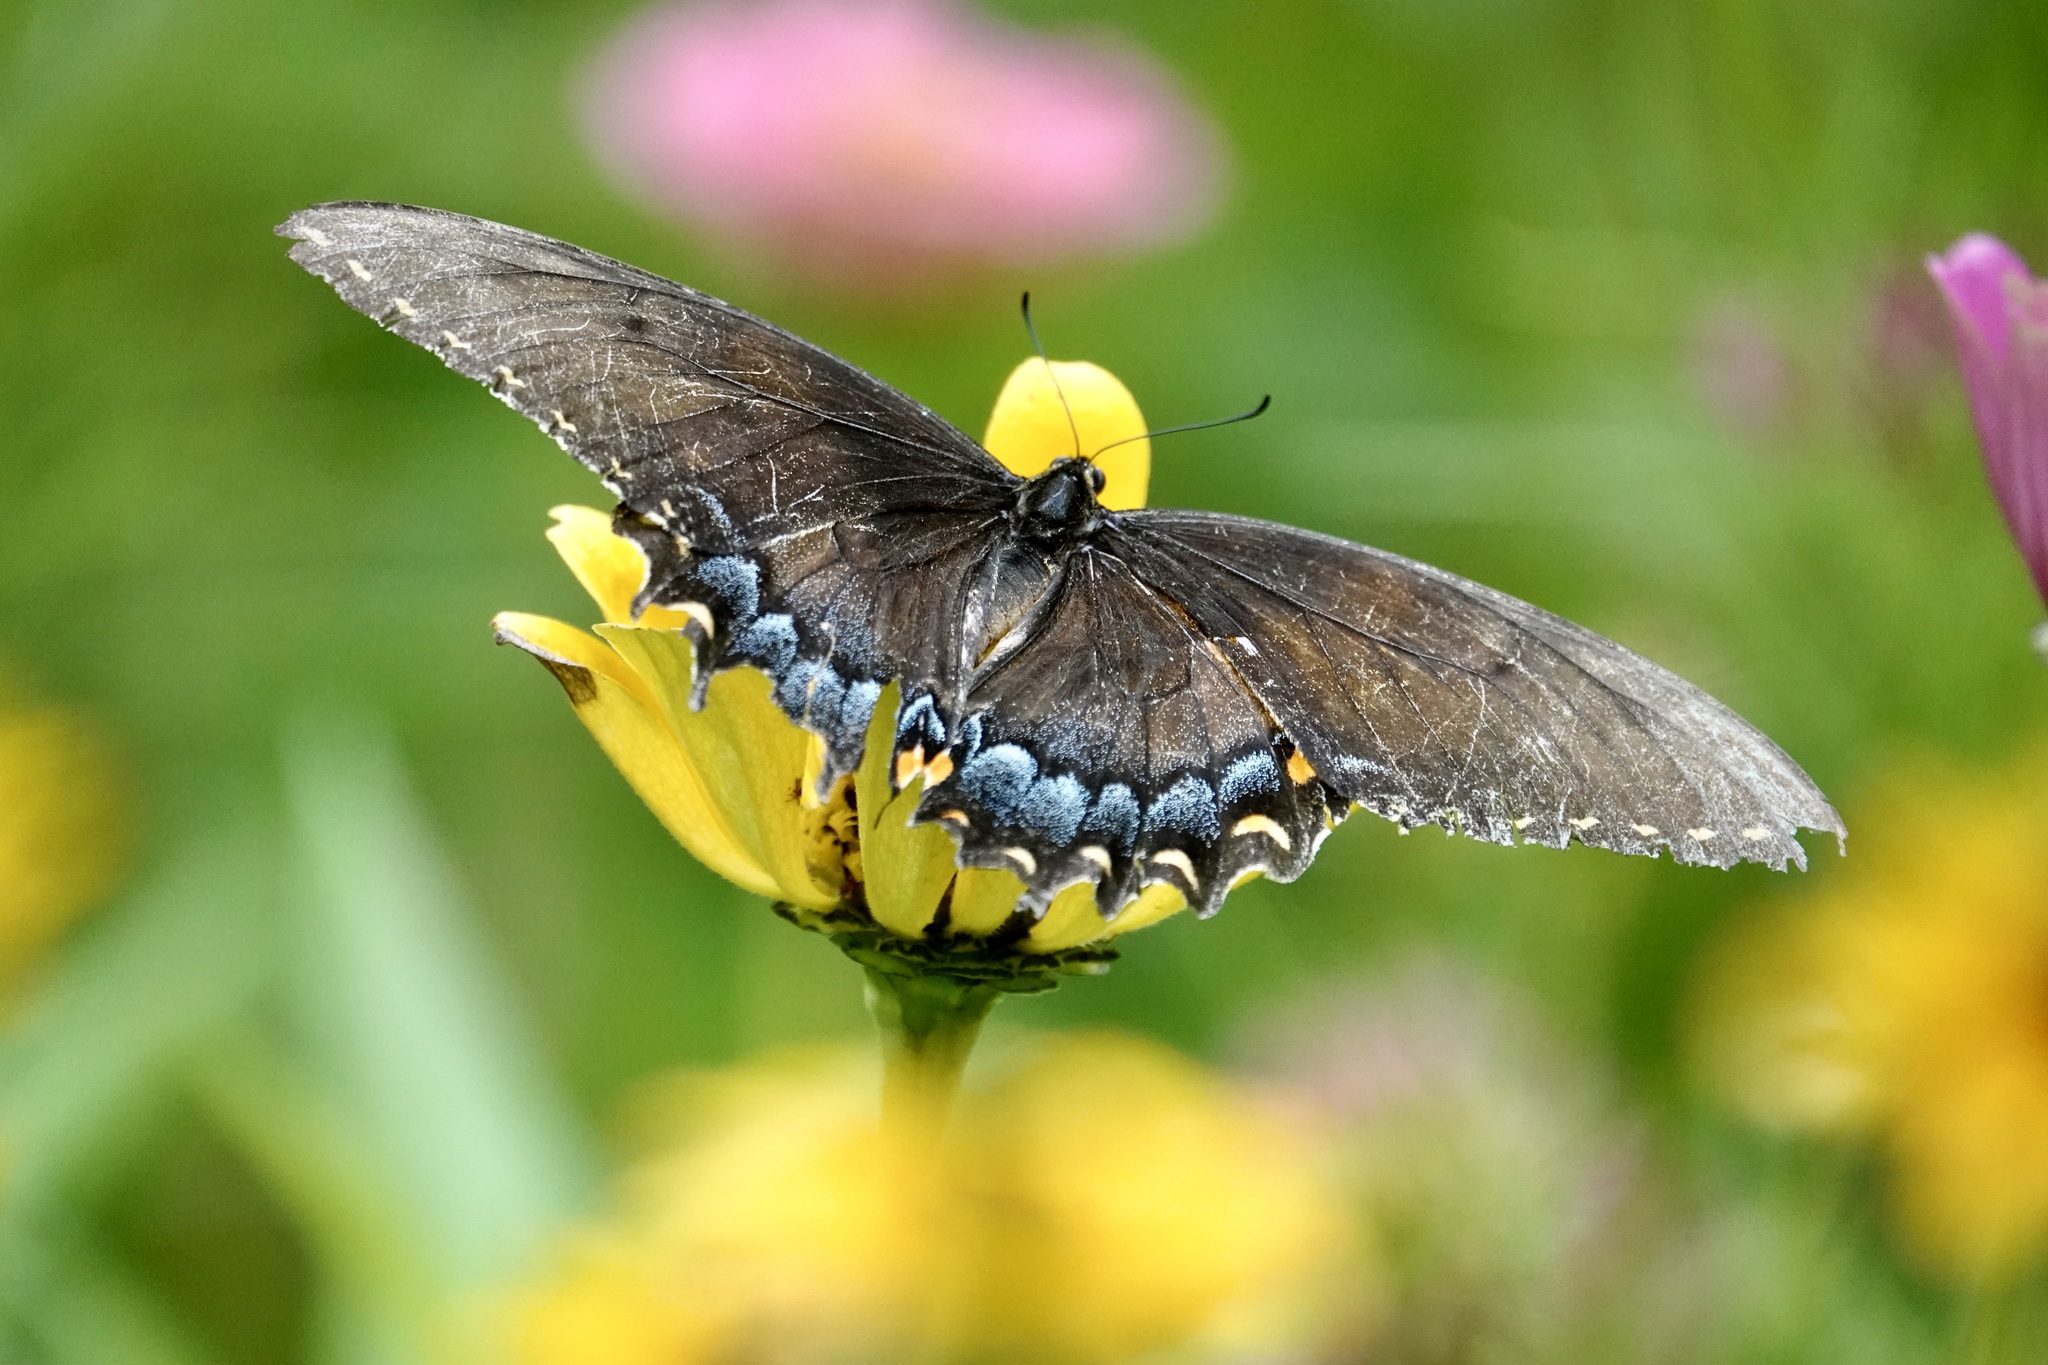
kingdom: Animalia
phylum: Arthropoda
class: Insecta
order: Lepidoptera
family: Papilionidae
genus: Papilio
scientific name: Papilio glaucus
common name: Tiger swallowtail
